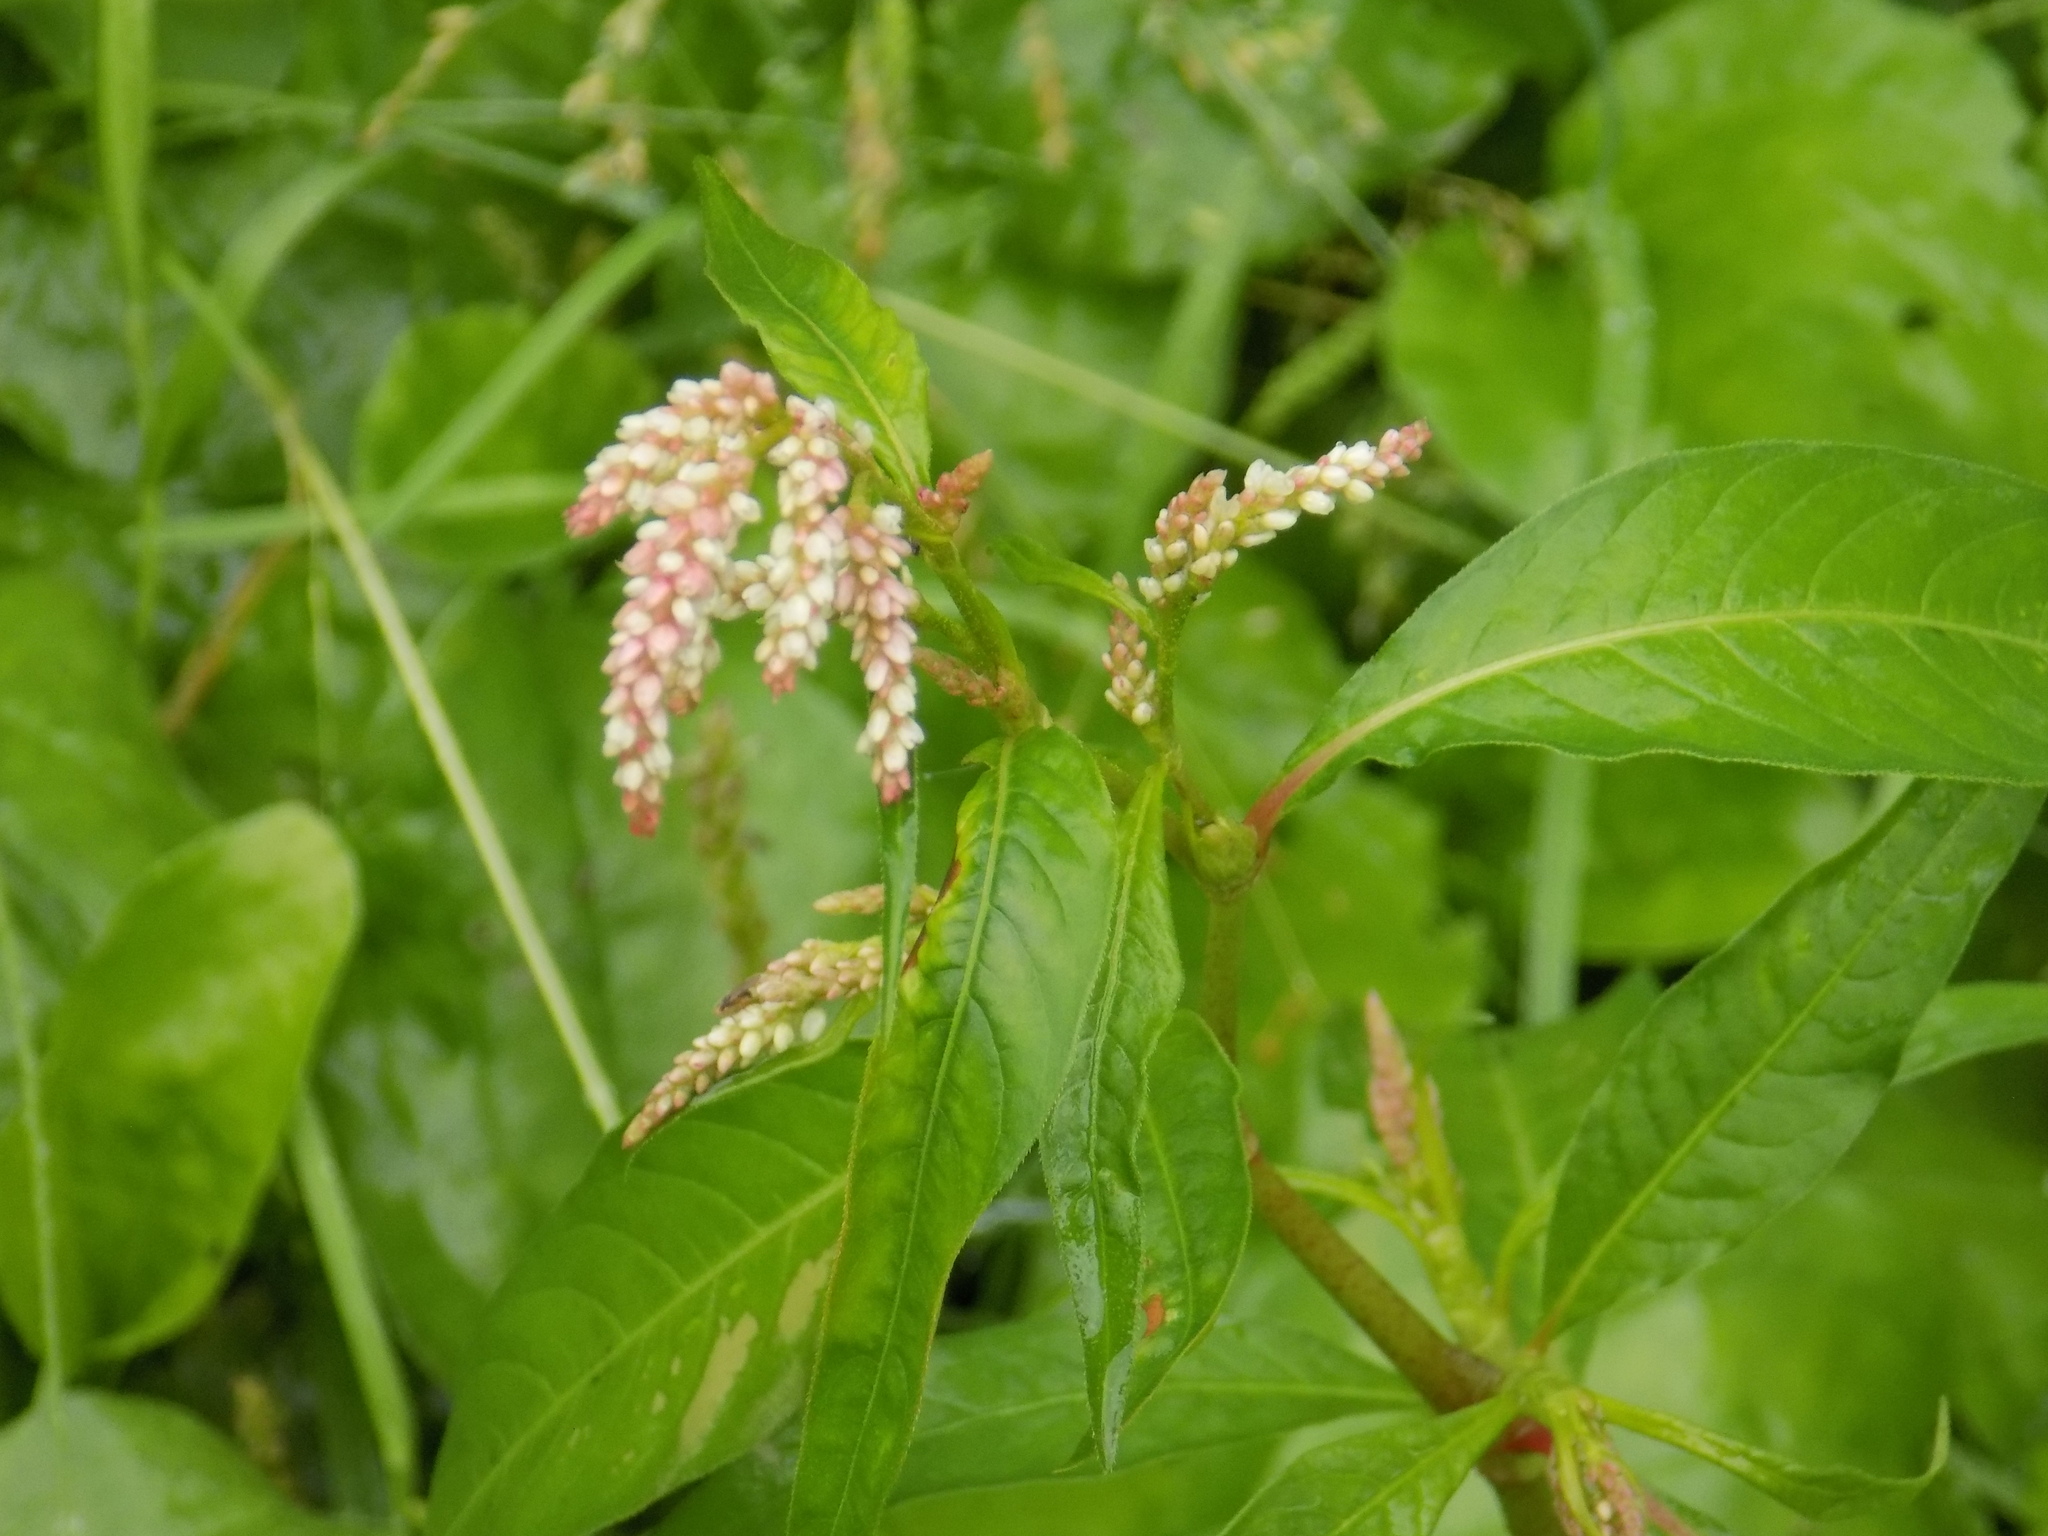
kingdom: Plantae
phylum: Tracheophyta
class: Magnoliopsida
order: Caryophyllales
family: Polygonaceae
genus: Persicaria
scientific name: Persicaria lapathifolia
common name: Curlytop knotweed
